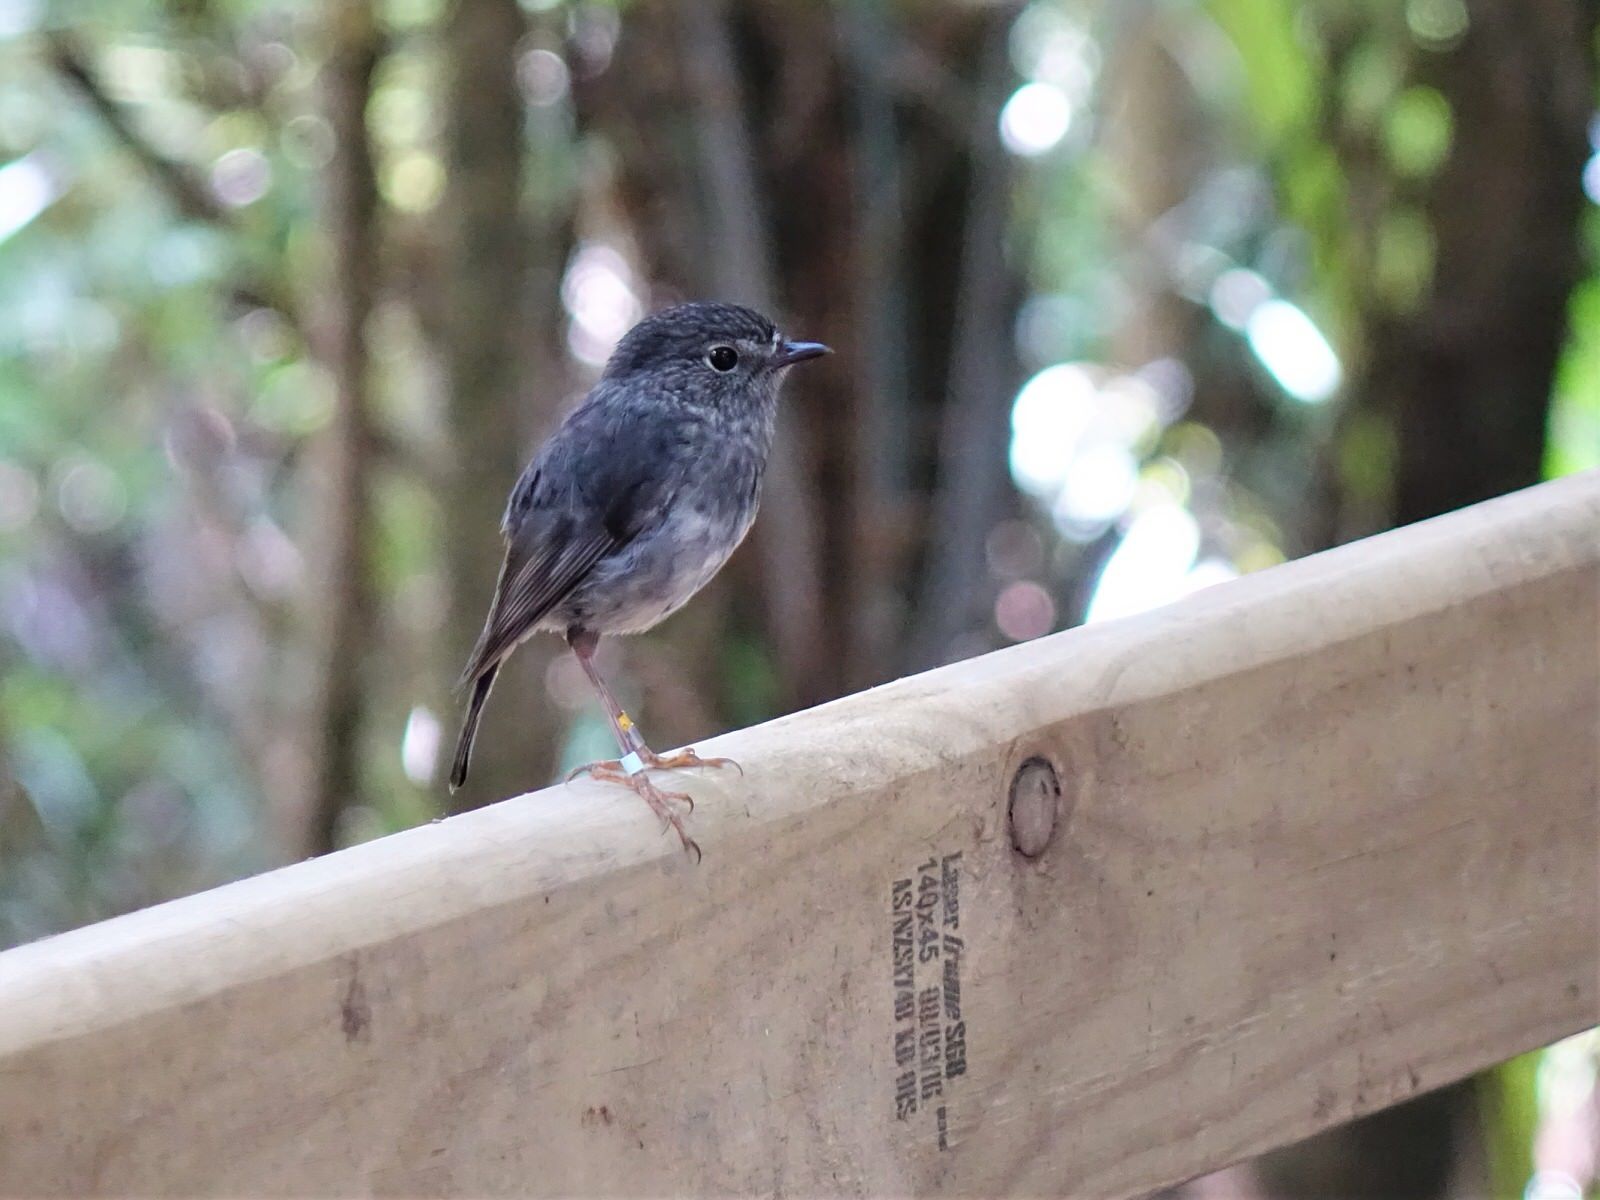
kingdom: Animalia
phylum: Chordata
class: Aves
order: Passeriformes
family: Petroicidae
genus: Petroica
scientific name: Petroica australis
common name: New zealand robin
